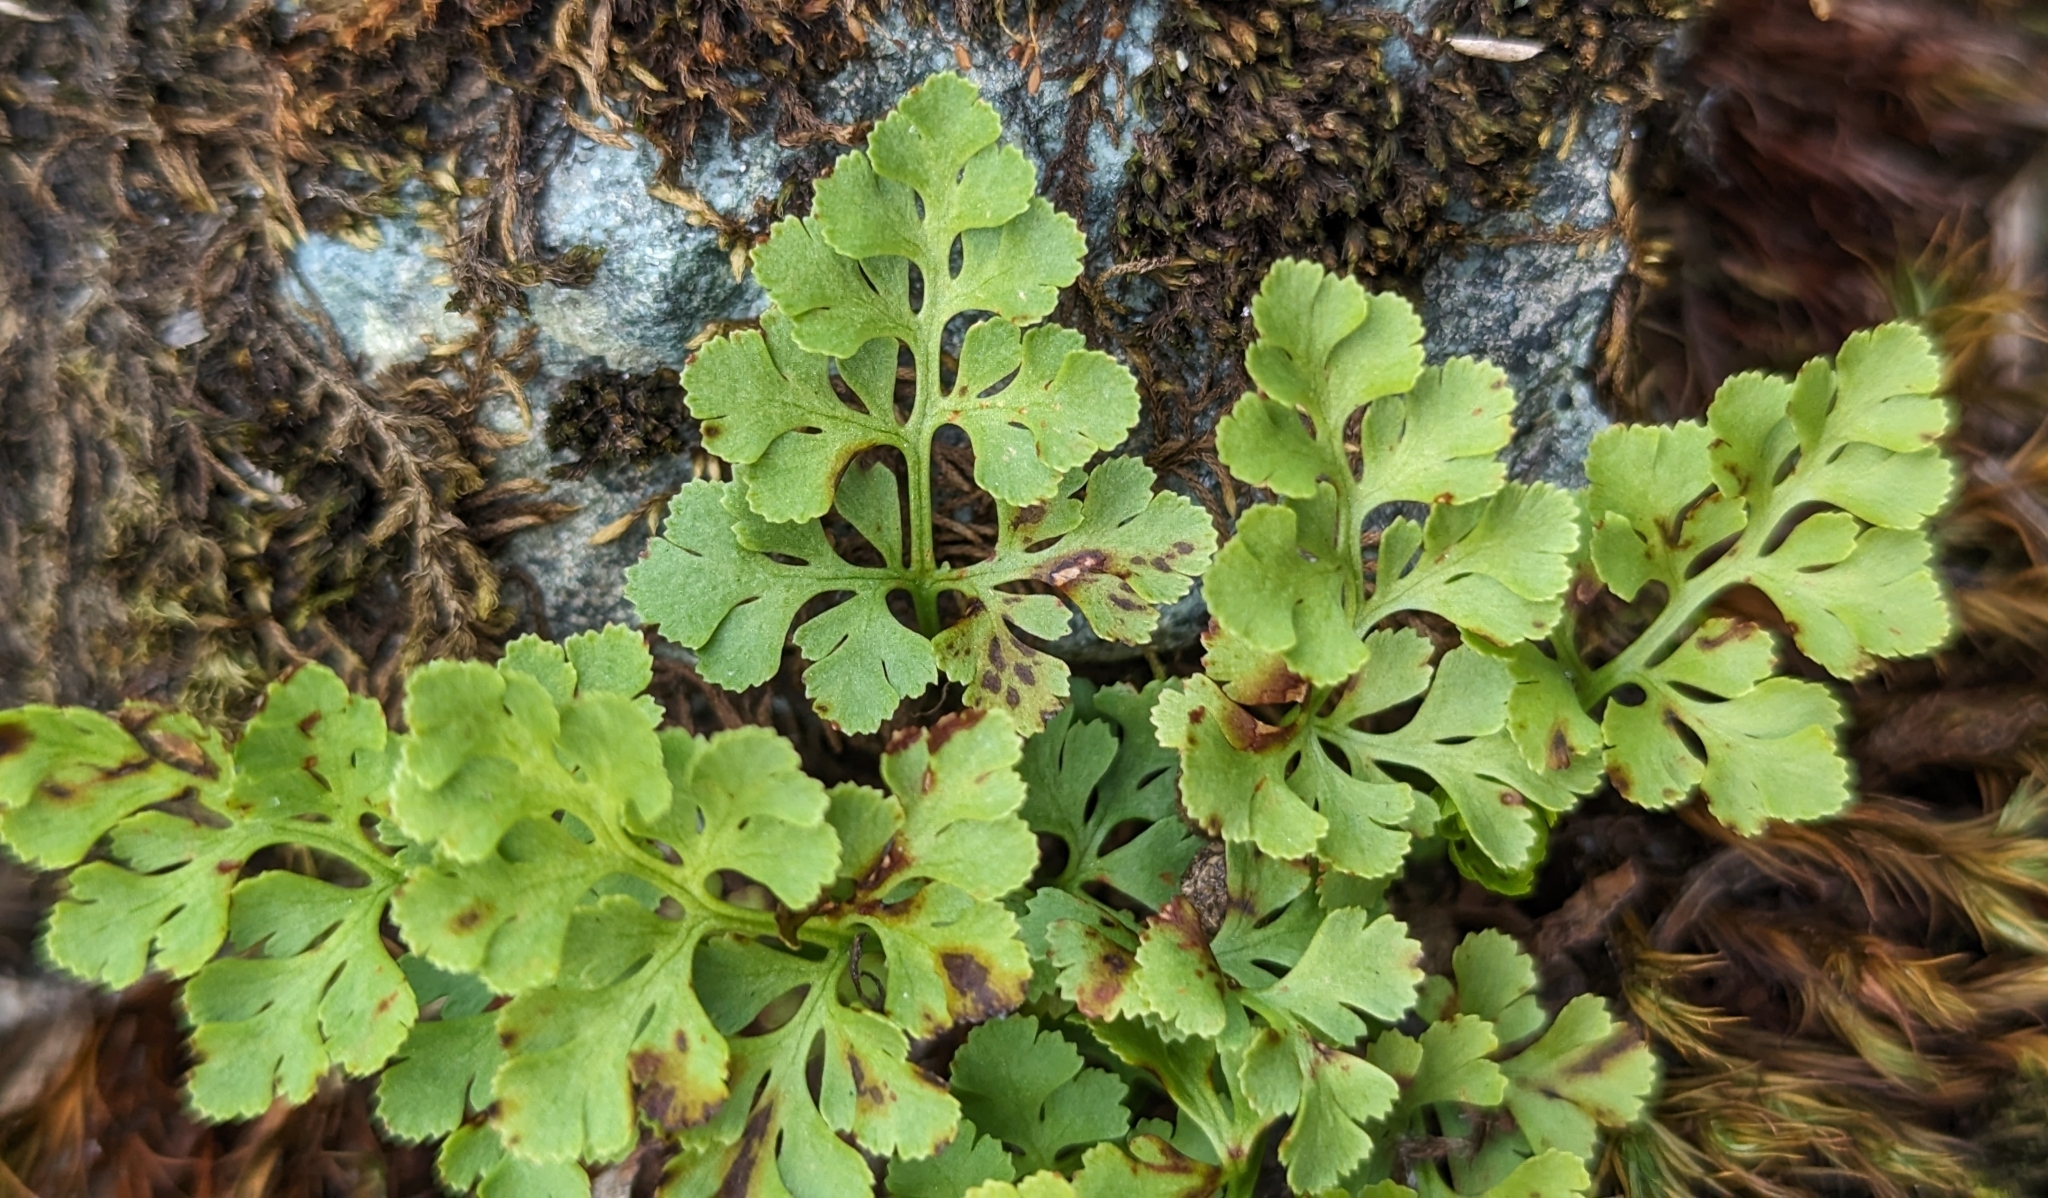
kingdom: Plantae
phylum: Tracheophyta
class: Polypodiopsida
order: Polypodiales
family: Pteridaceae
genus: Cryptogramma
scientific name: Cryptogramma acrostichoides
